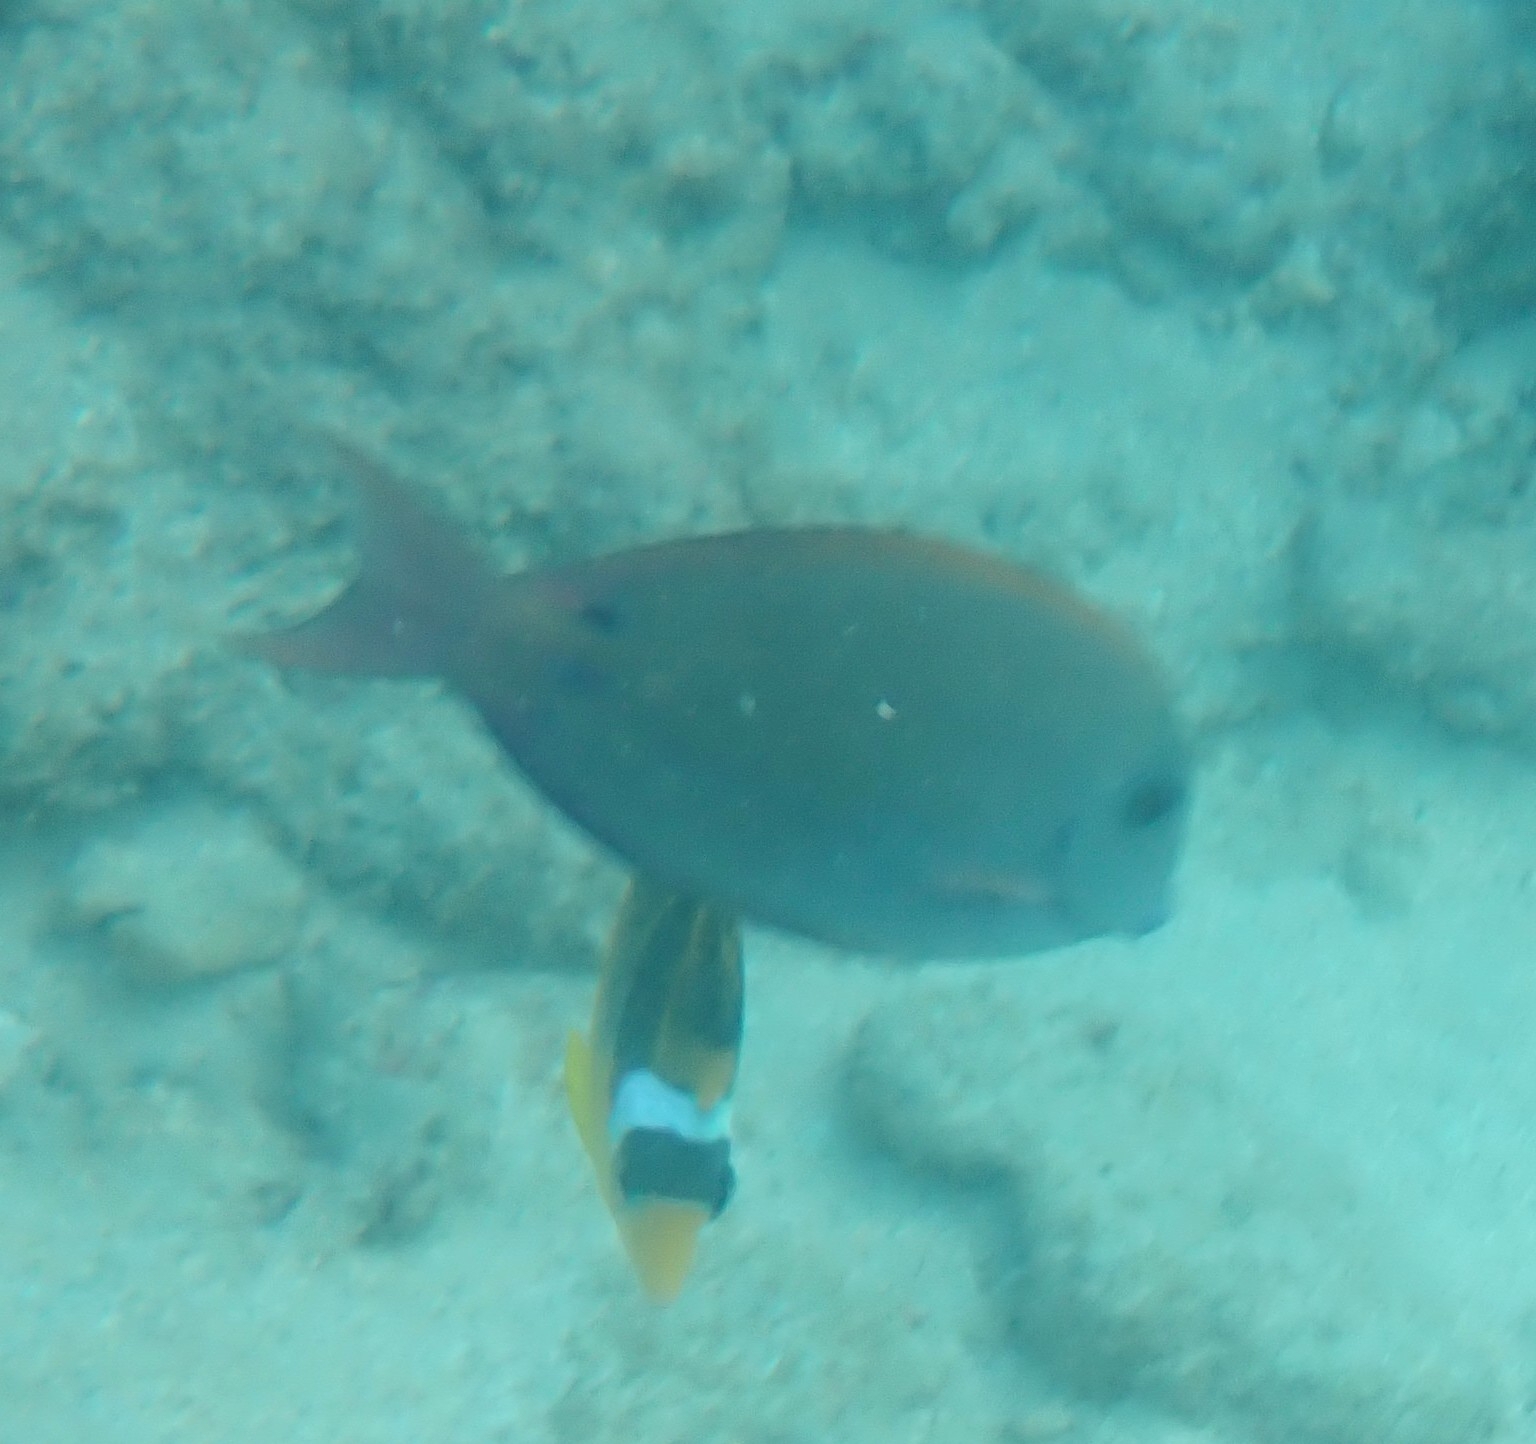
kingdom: Animalia
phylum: Chordata
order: Perciformes
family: Acanthuridae
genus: Acanthurus
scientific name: Acanthurus nigrofuscus
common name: Blackspot surgeonfish
